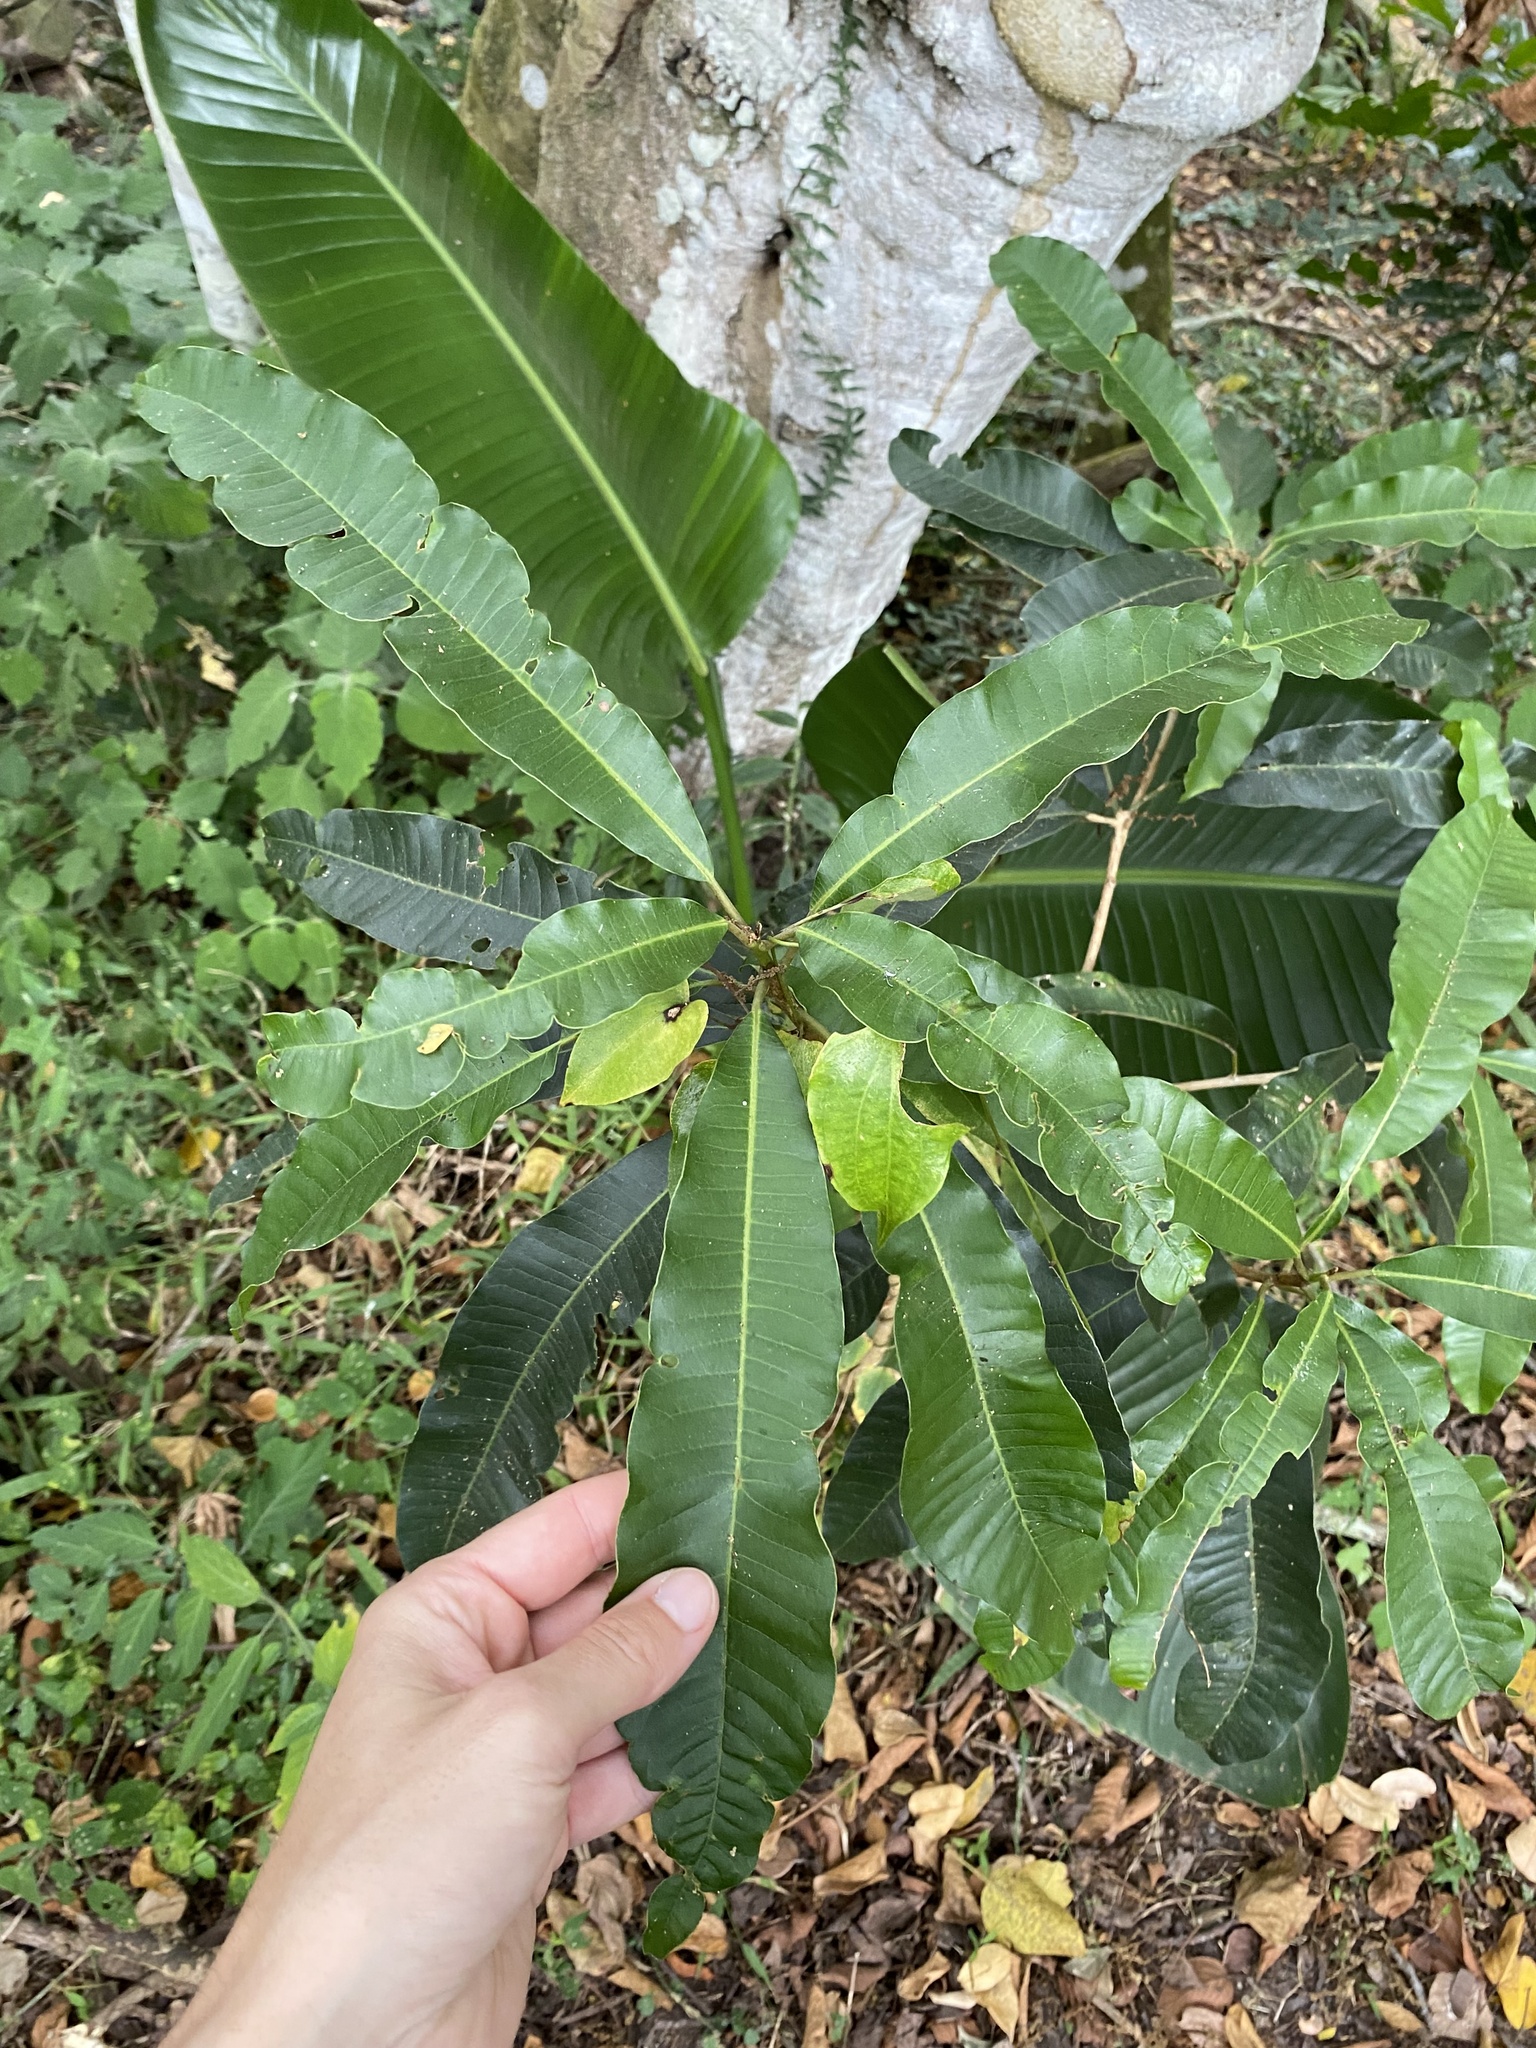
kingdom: Plantae
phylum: Tracheophyta
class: Magnoliopsida
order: Sapindales
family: Anacardiaceae
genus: Protorhus
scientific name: Protorhus longifolia
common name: Red-beech
